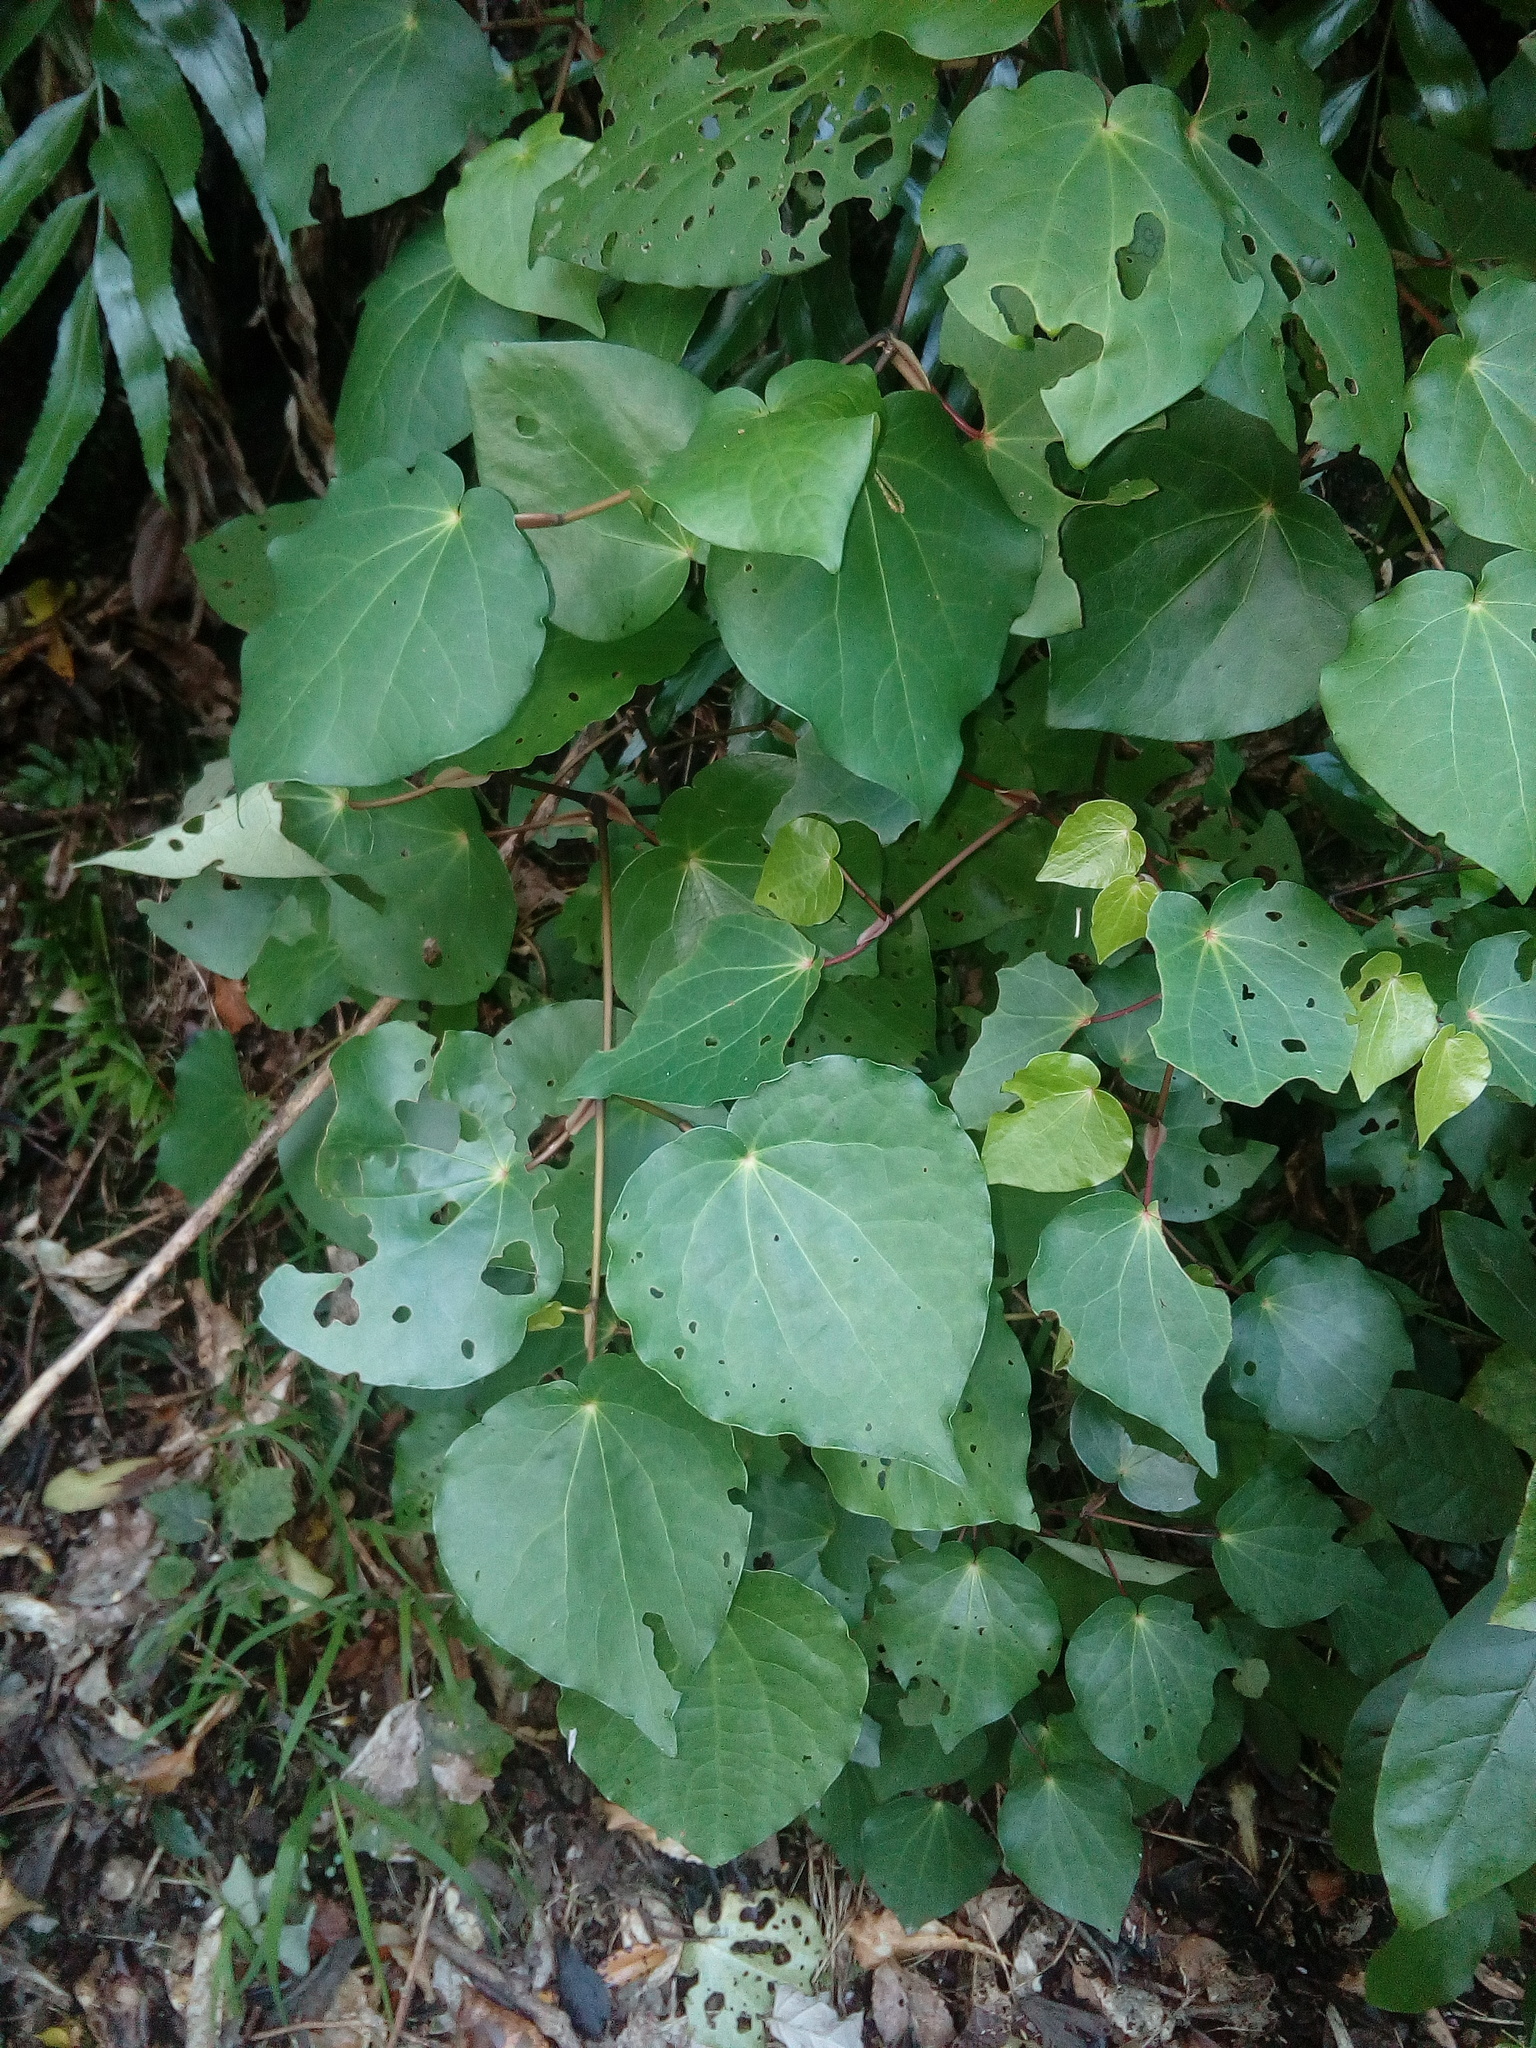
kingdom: Plantae
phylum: Tracheophyta
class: Magnoliopsida
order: Piperales
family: Piperaceae
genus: Macropiper
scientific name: Macropiper excelsum
